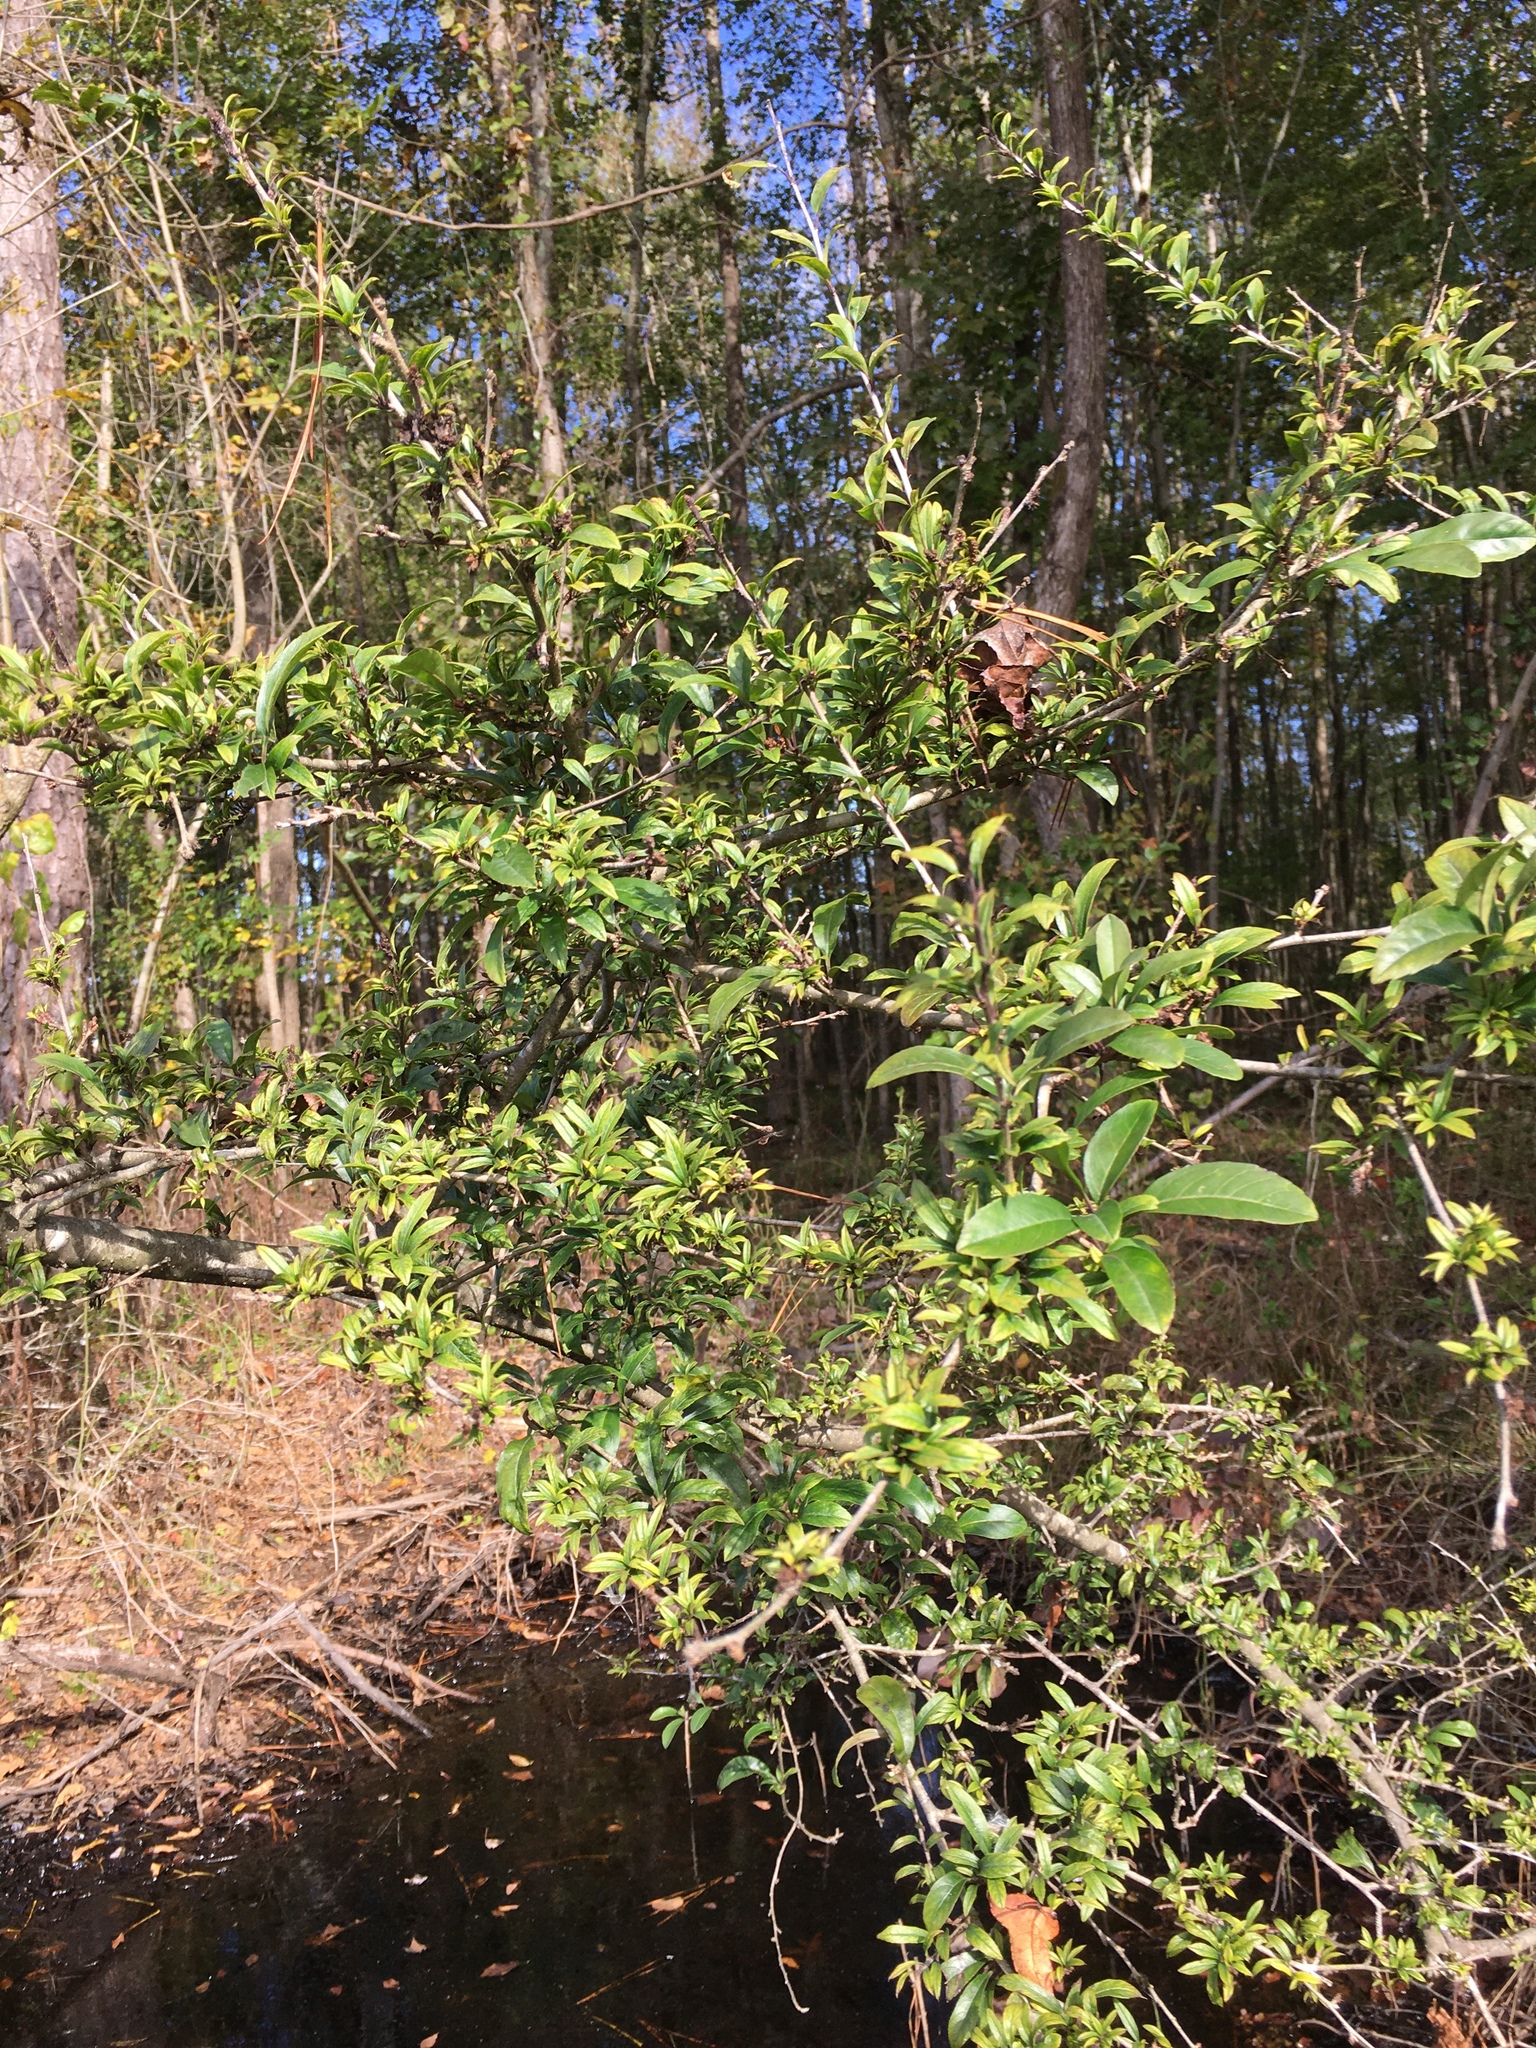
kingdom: Plantae
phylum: Tracheophyta
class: Magnoliopsida
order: Aquifoliales
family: Aquifoliaceae
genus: Ilex
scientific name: Ilex decidua
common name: Possum-haw
